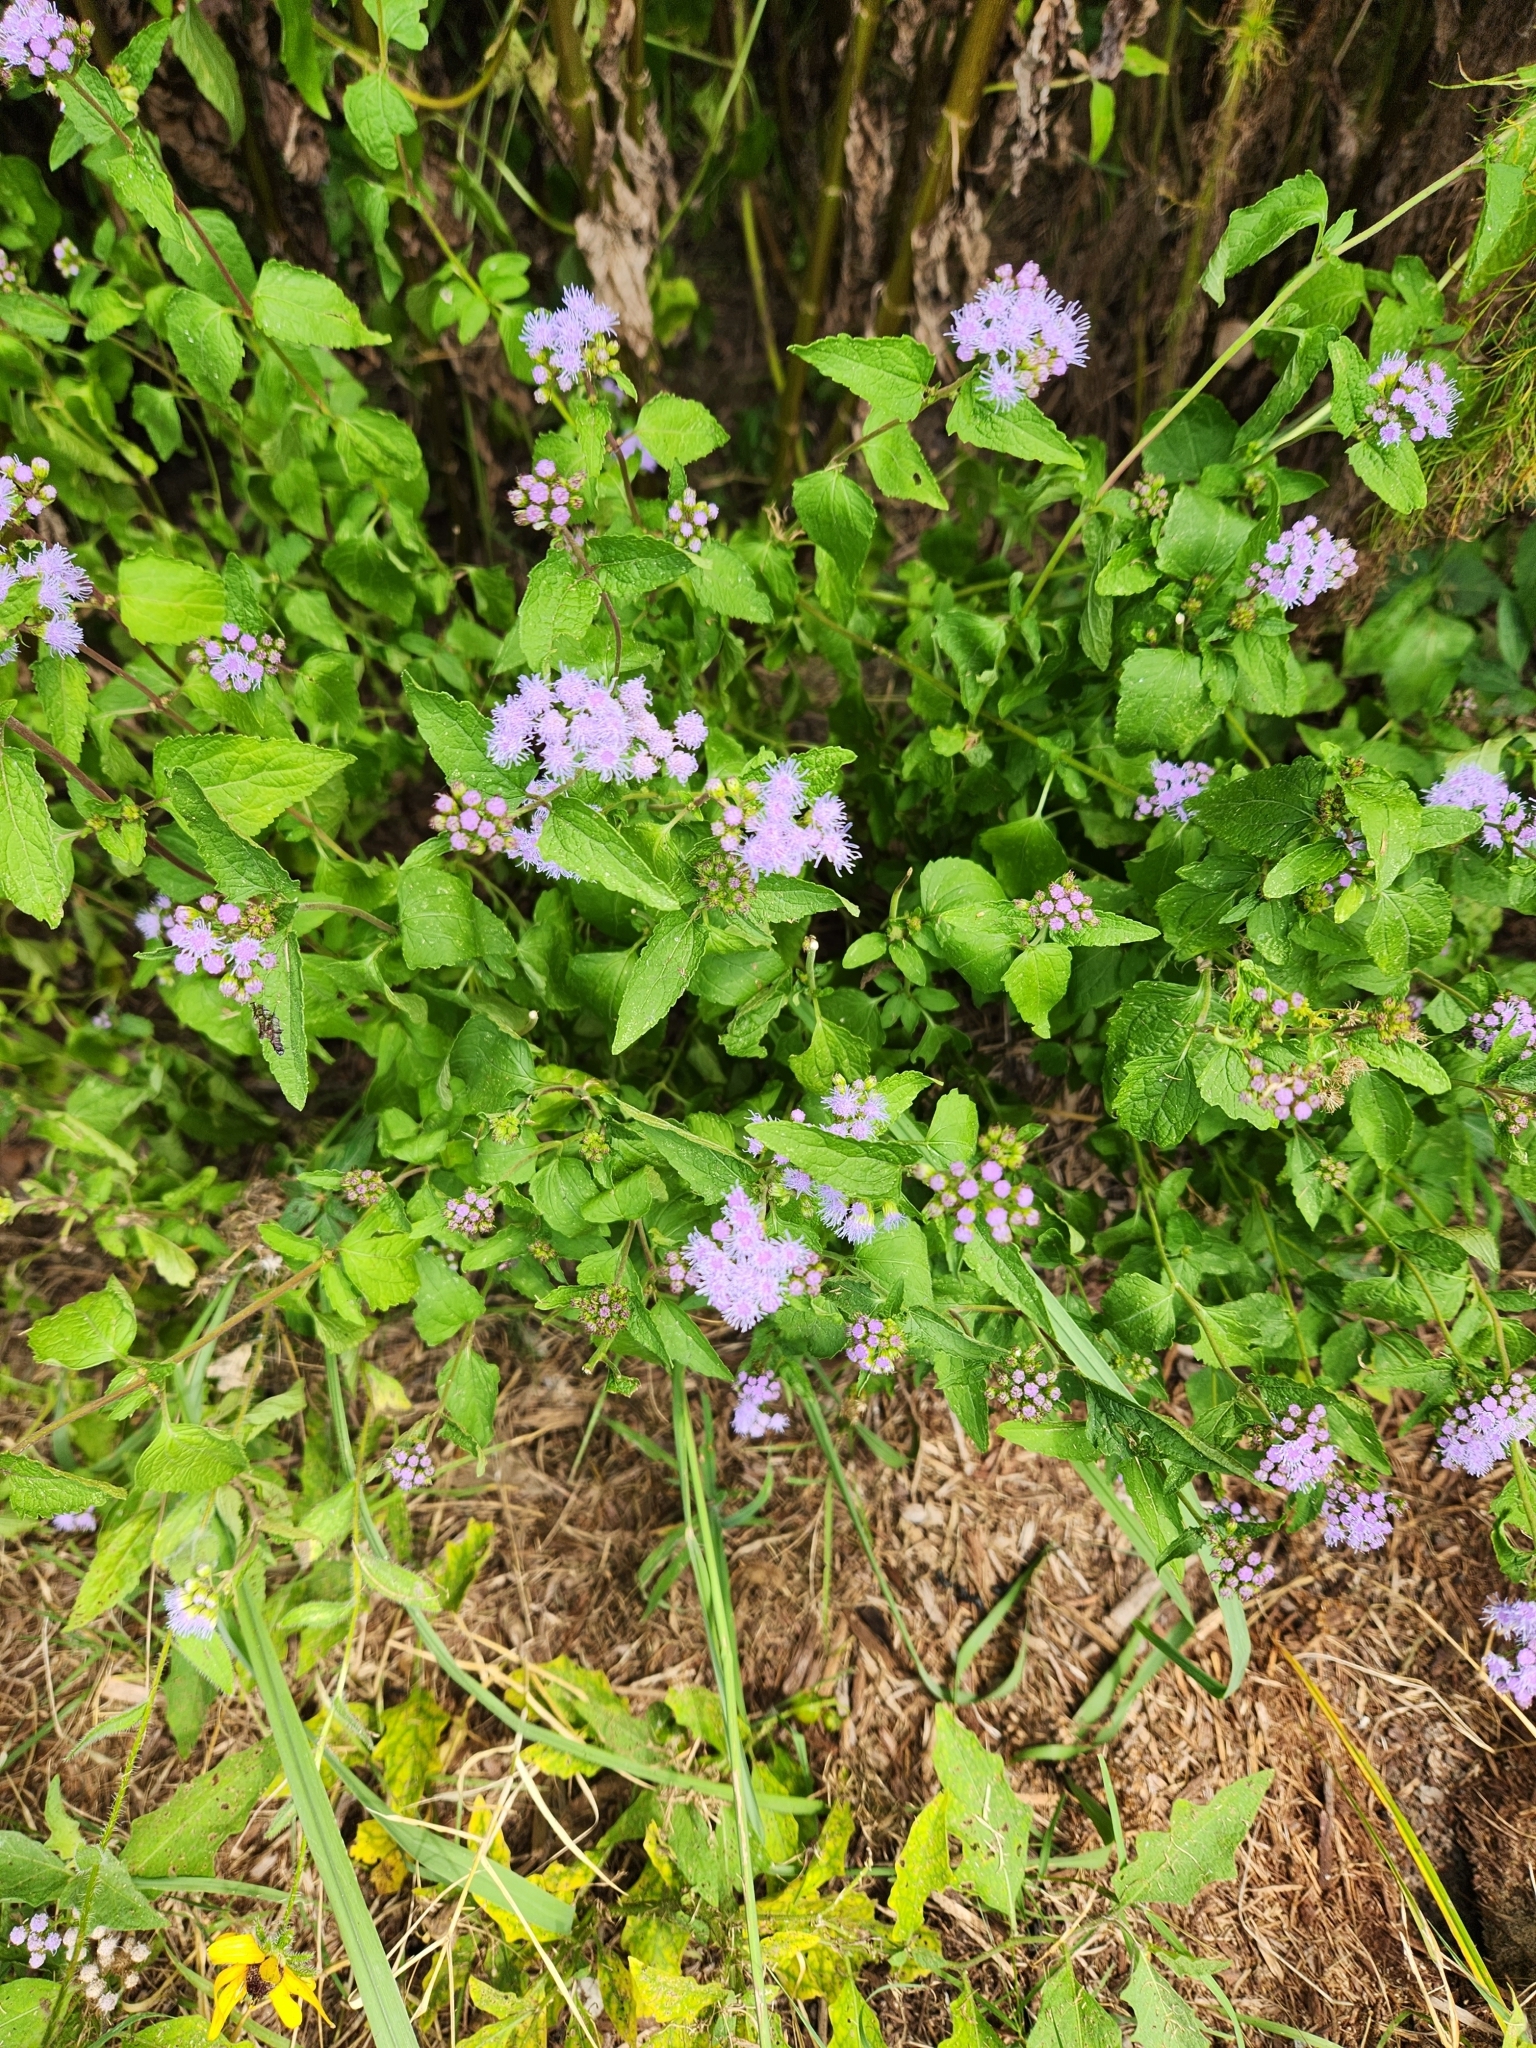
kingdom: Plantae
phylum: Tracheophyta
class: Magnoliopsida
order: Asterales
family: Asteraceae
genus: Conoclinium
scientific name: Conoclinium coelestinum
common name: Blue mistflower
